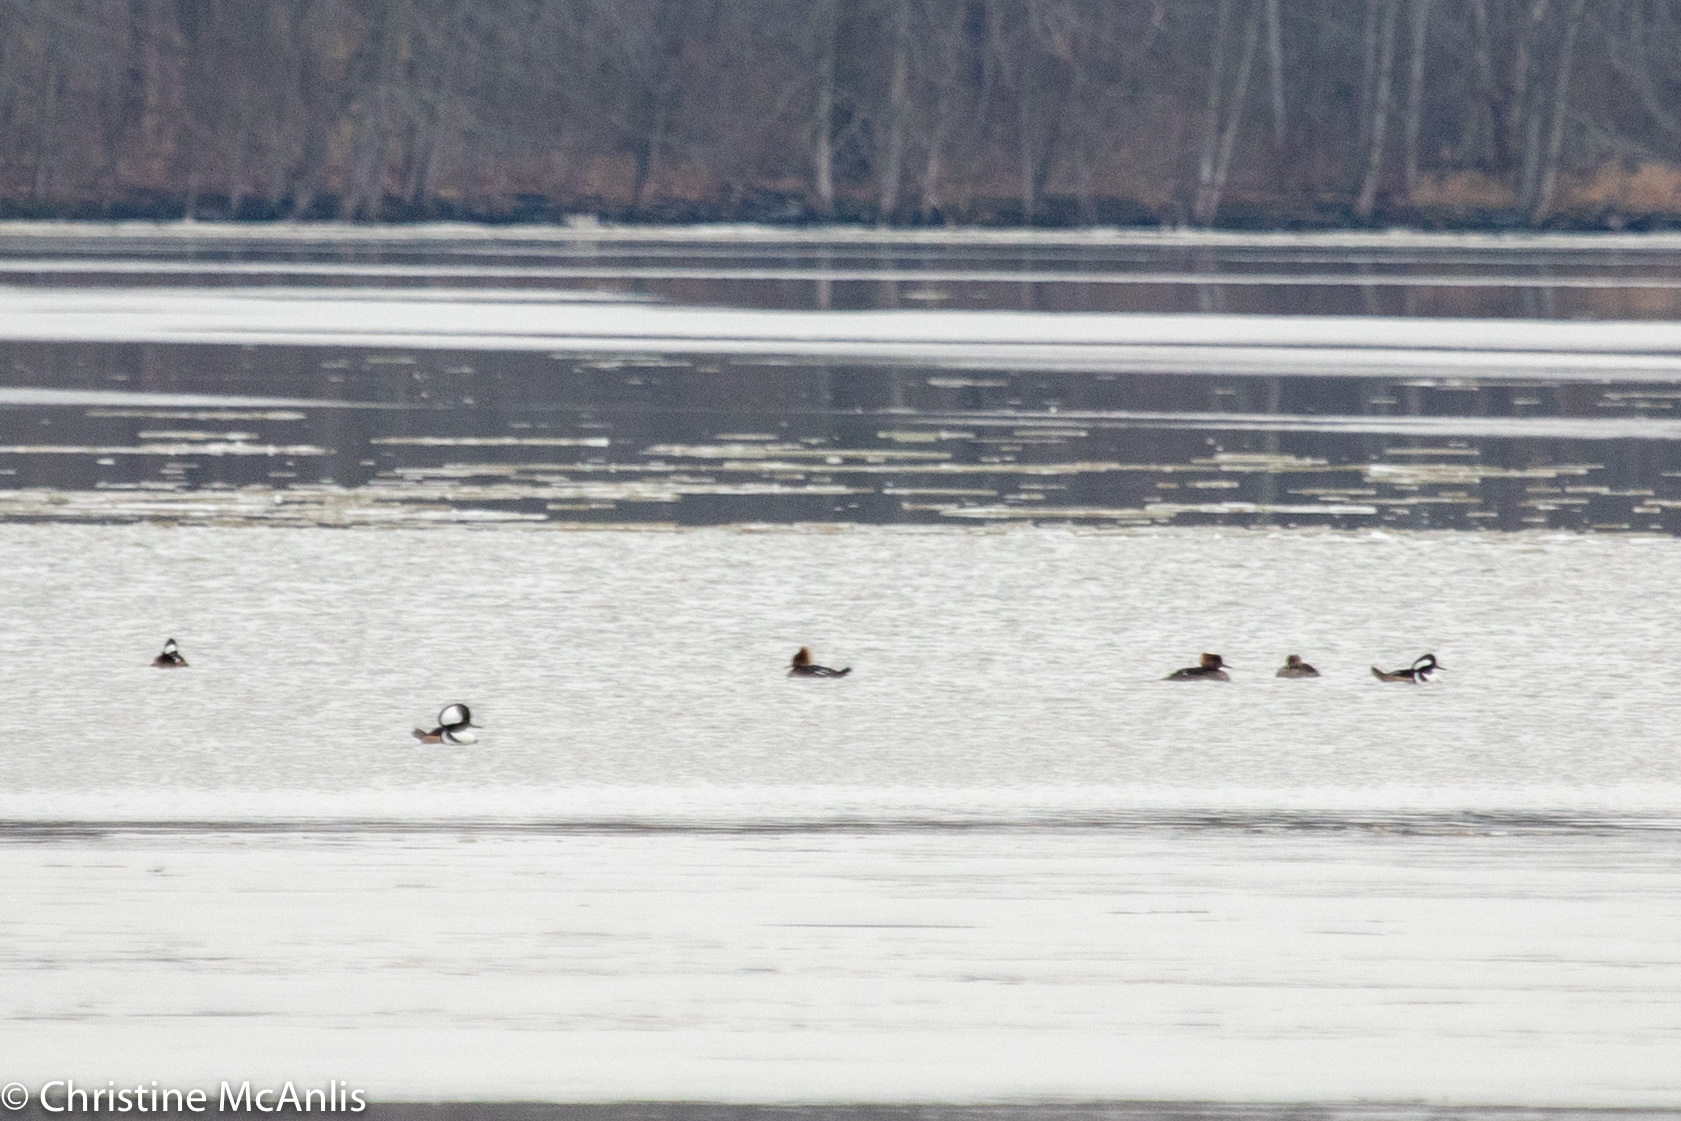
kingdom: Animalia
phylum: Chordata
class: Aves
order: Anseriformes
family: Anatidae
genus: Lophodytes
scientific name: Lophodytes cucullatus
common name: Hooded merganser
